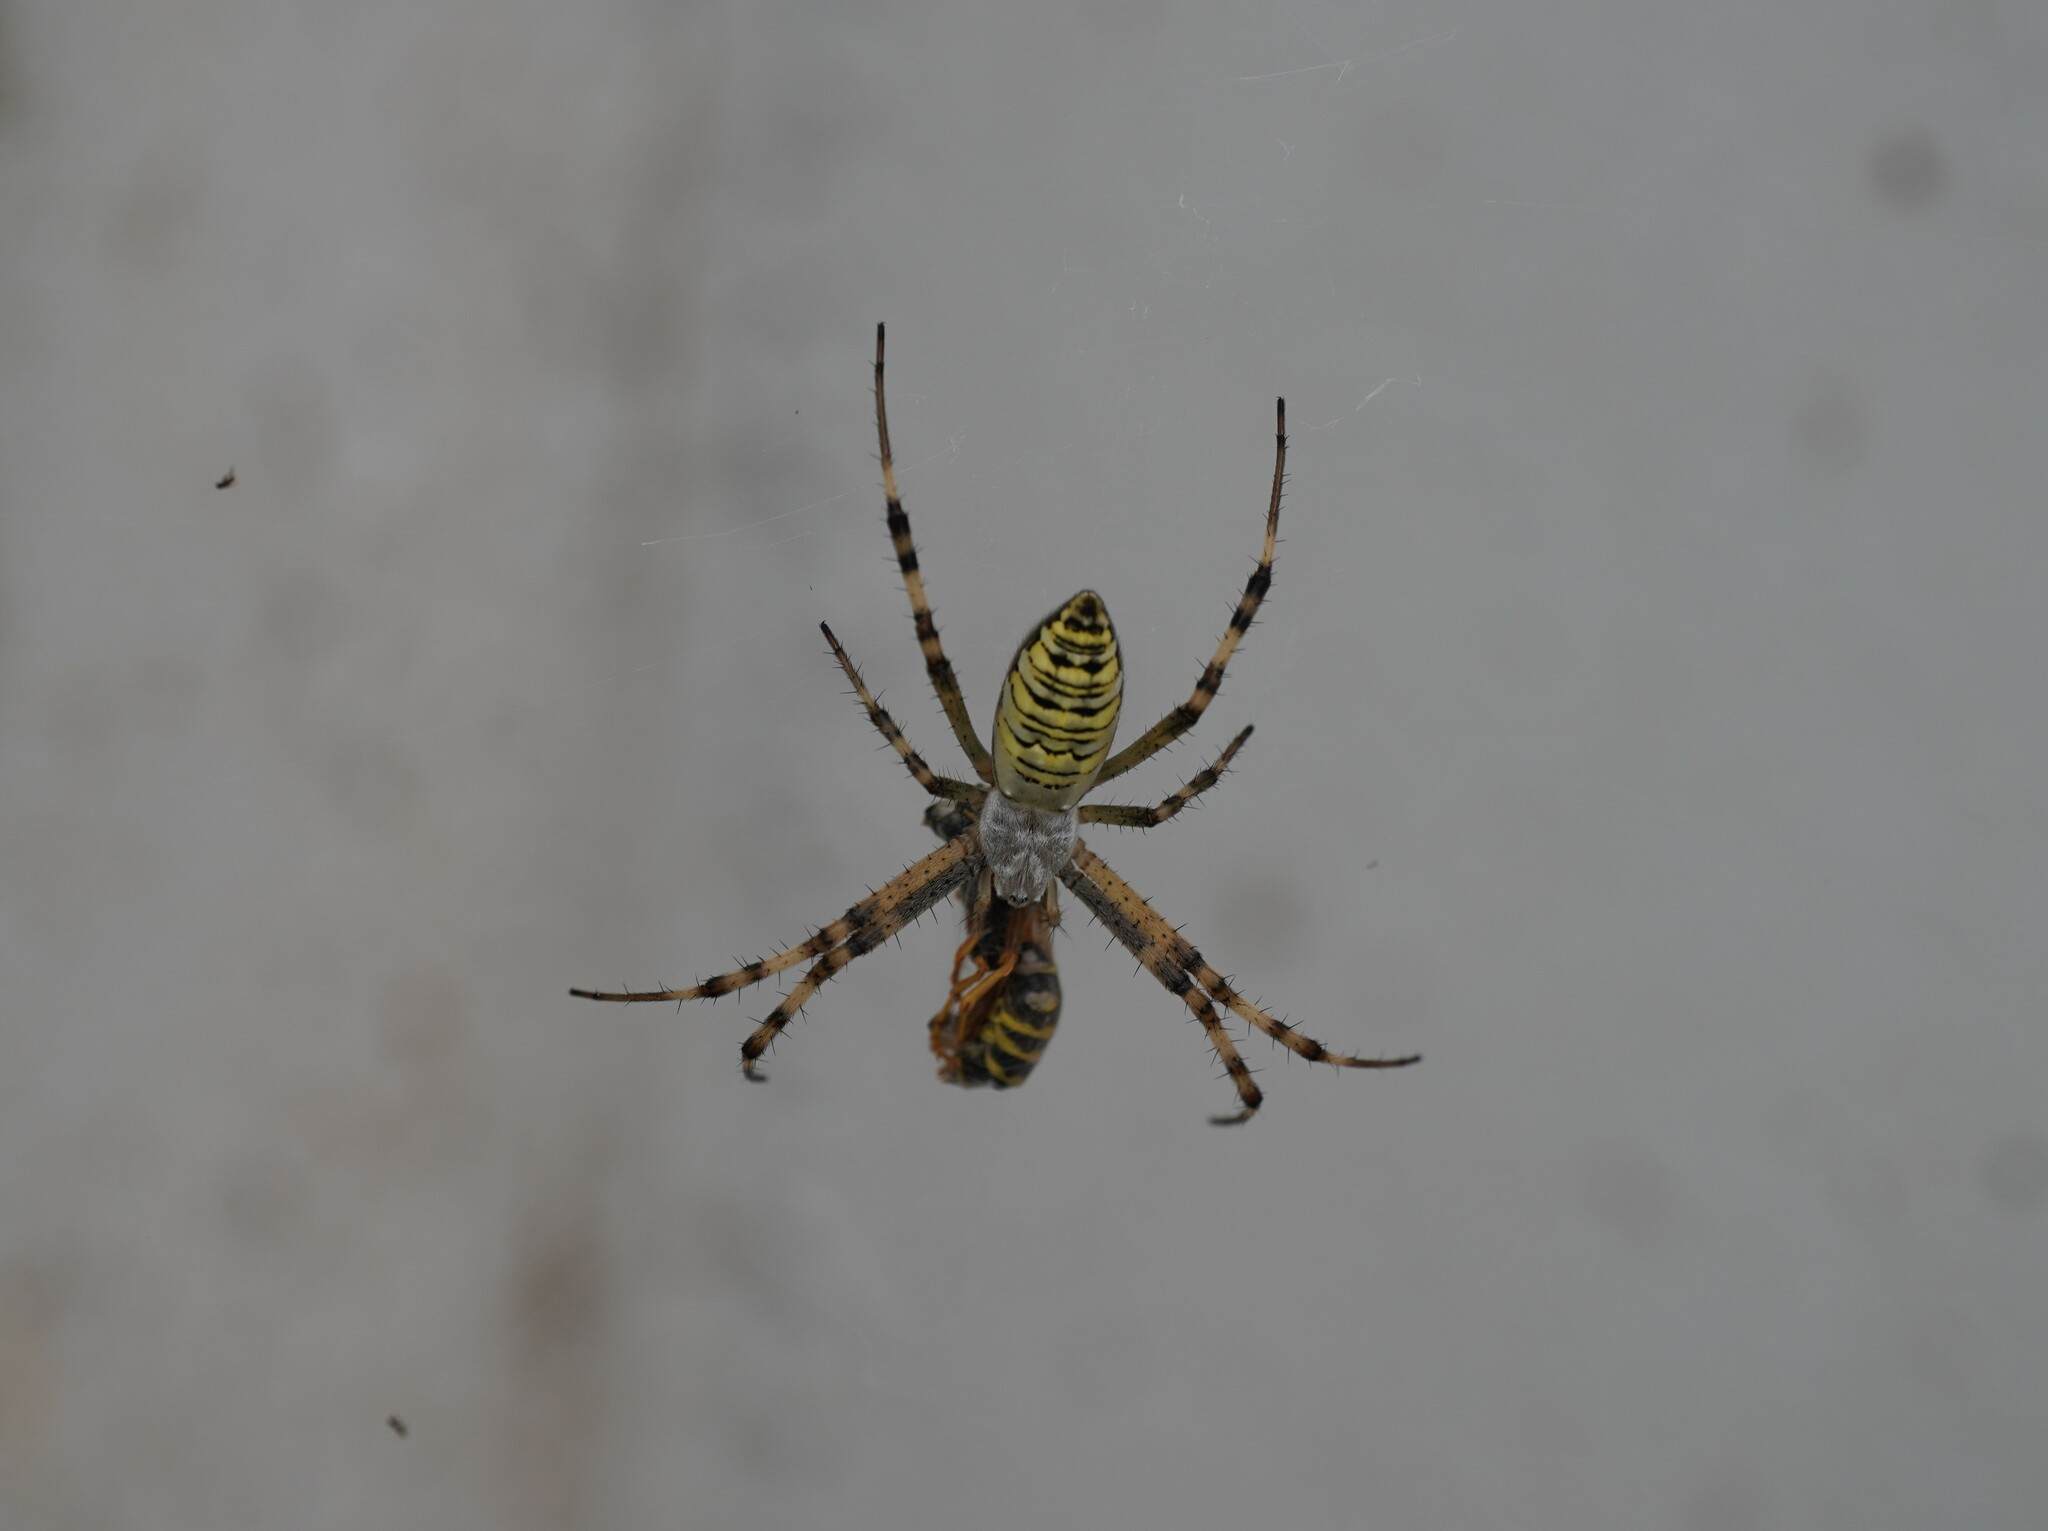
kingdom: Animalia
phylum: Arthropoda
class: Arachnida
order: Araneae
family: Araneidae
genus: Argiope
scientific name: Argiope bruennichi
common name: Wasp spider
